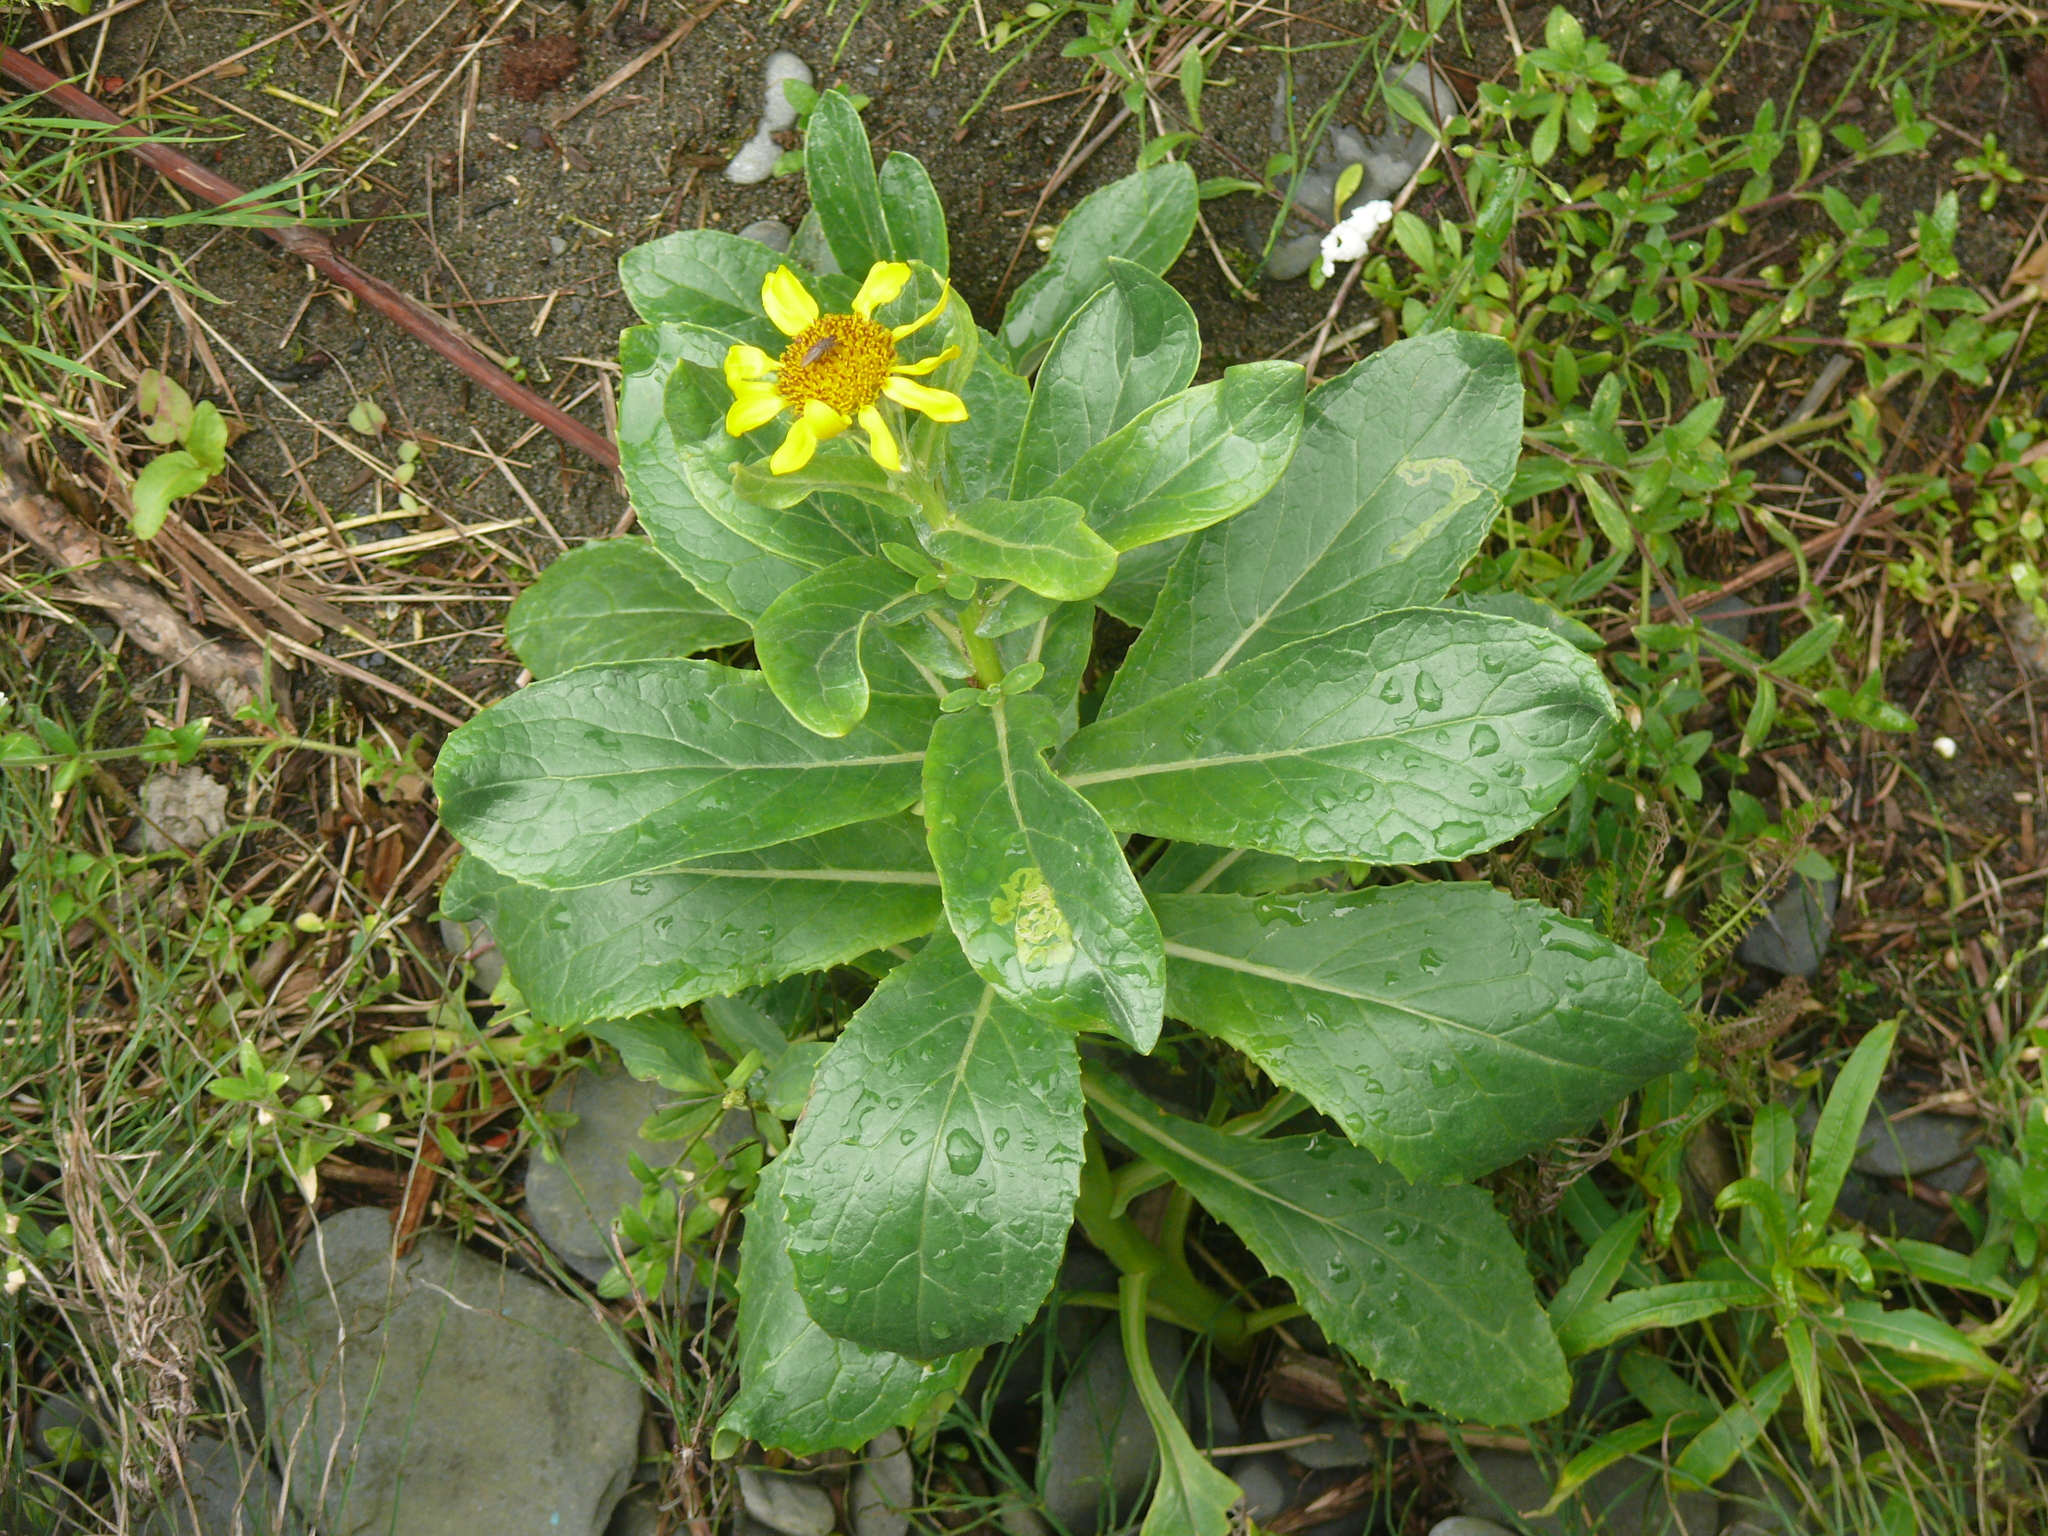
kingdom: Plantae
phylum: Tracheophyta
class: Magnoliopsida
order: Asterales
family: Asteraceae
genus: Jacobaea
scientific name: Jacobaea pseudoarnica
